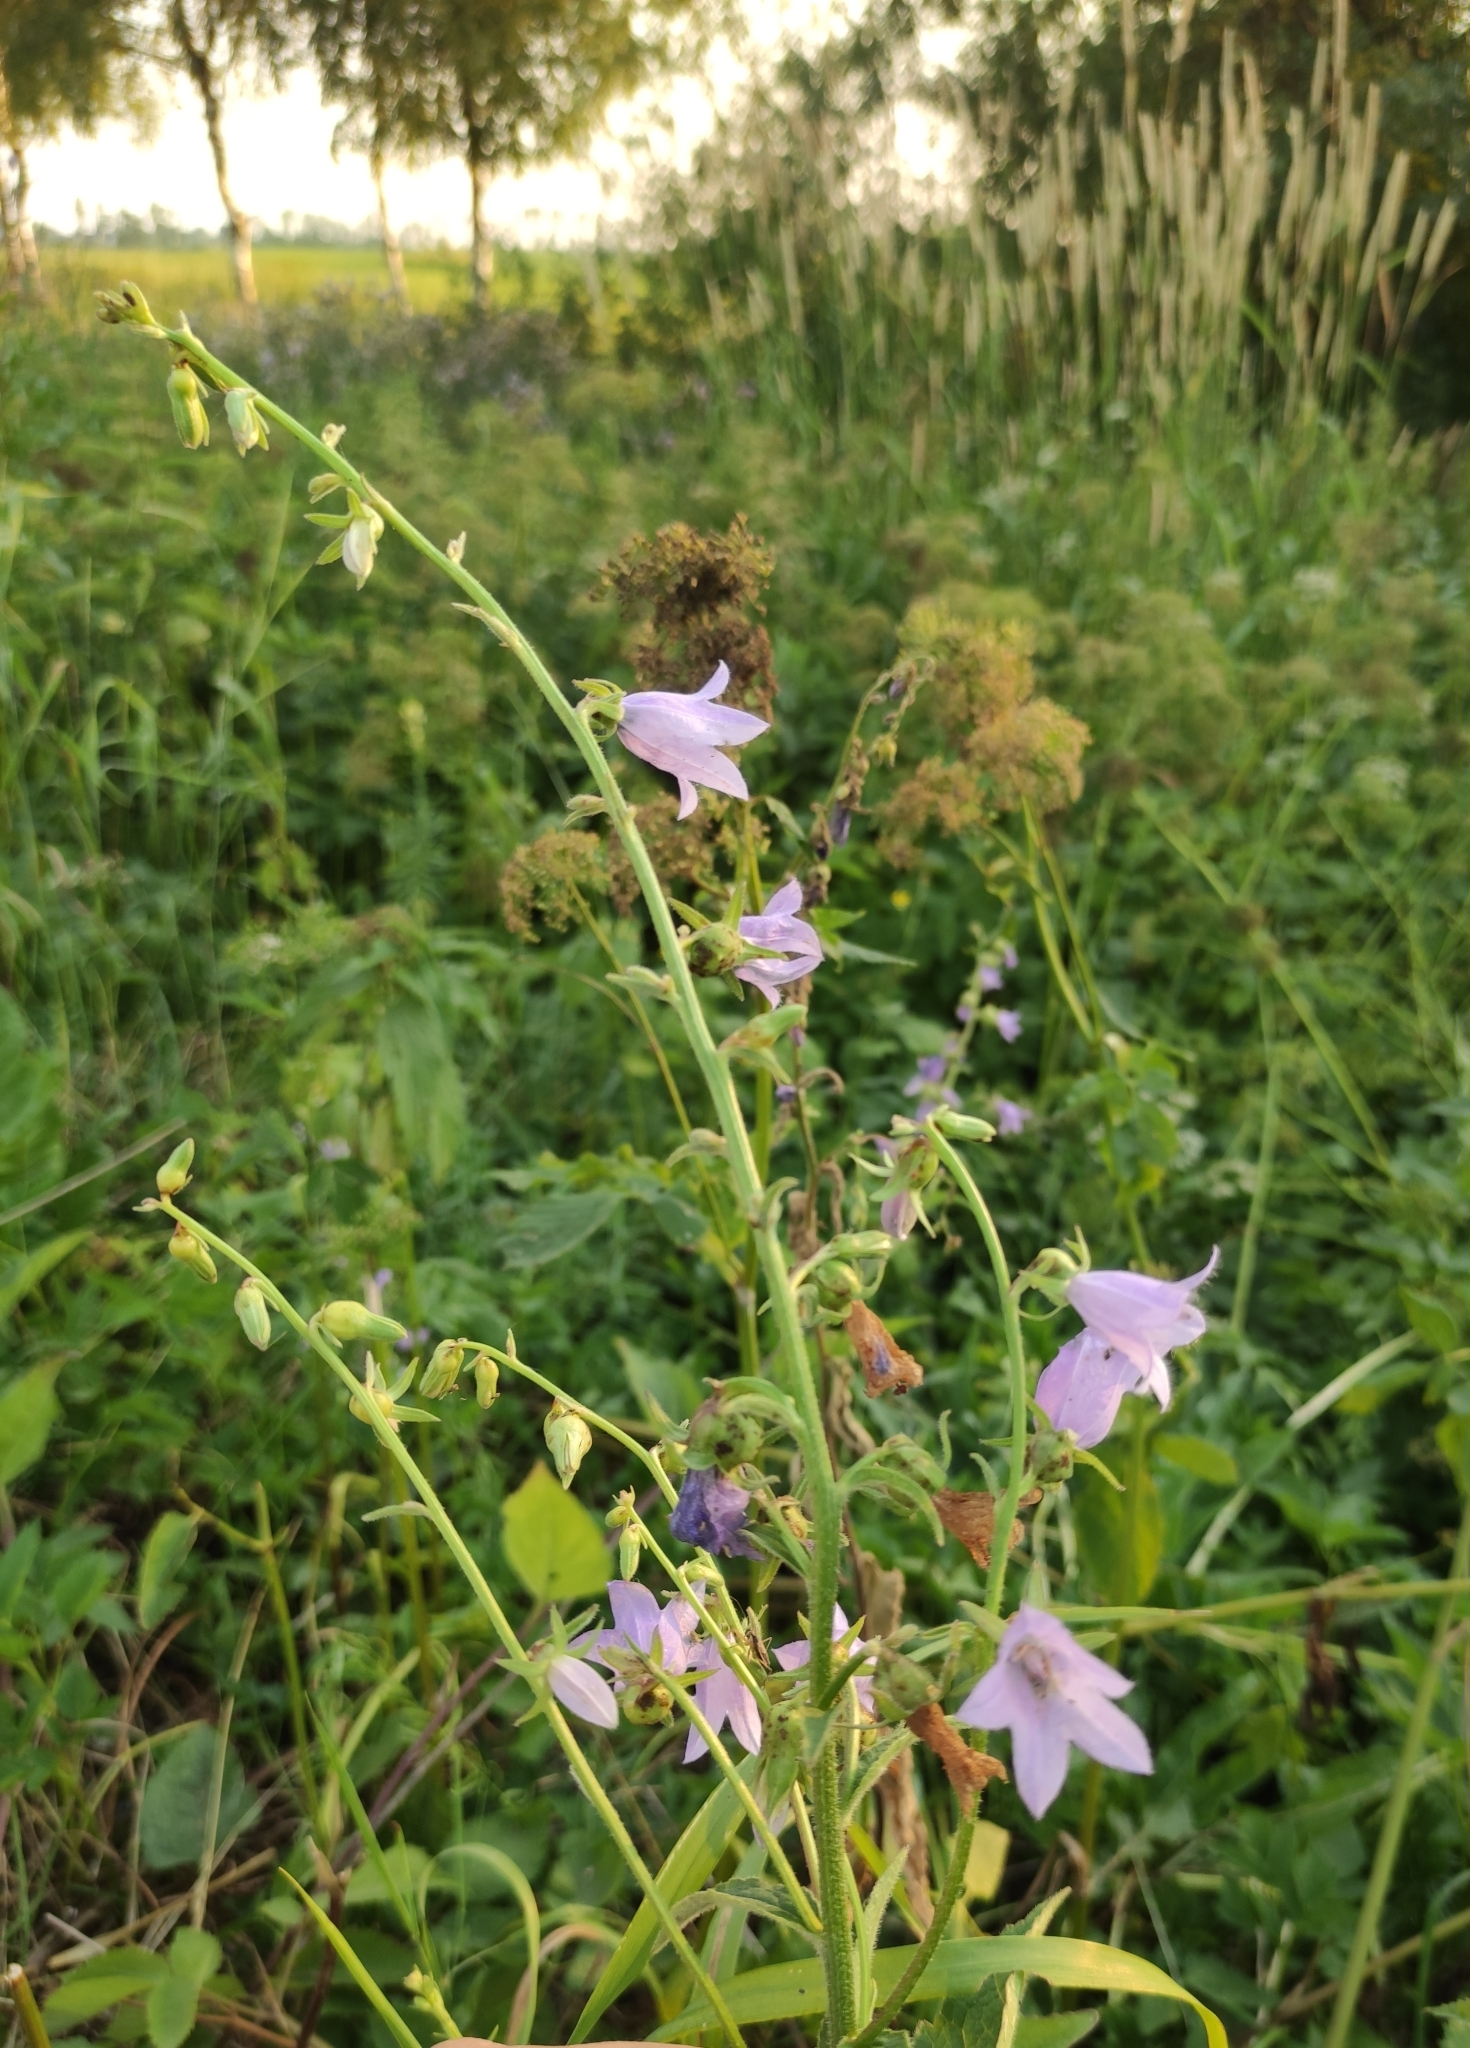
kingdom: Plantae
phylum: Tracheophyta
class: Magnoliopsida
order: Asterales
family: Campanulaceae
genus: Campanula
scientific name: Campanula rapunculoides
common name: Creeping bellflower
